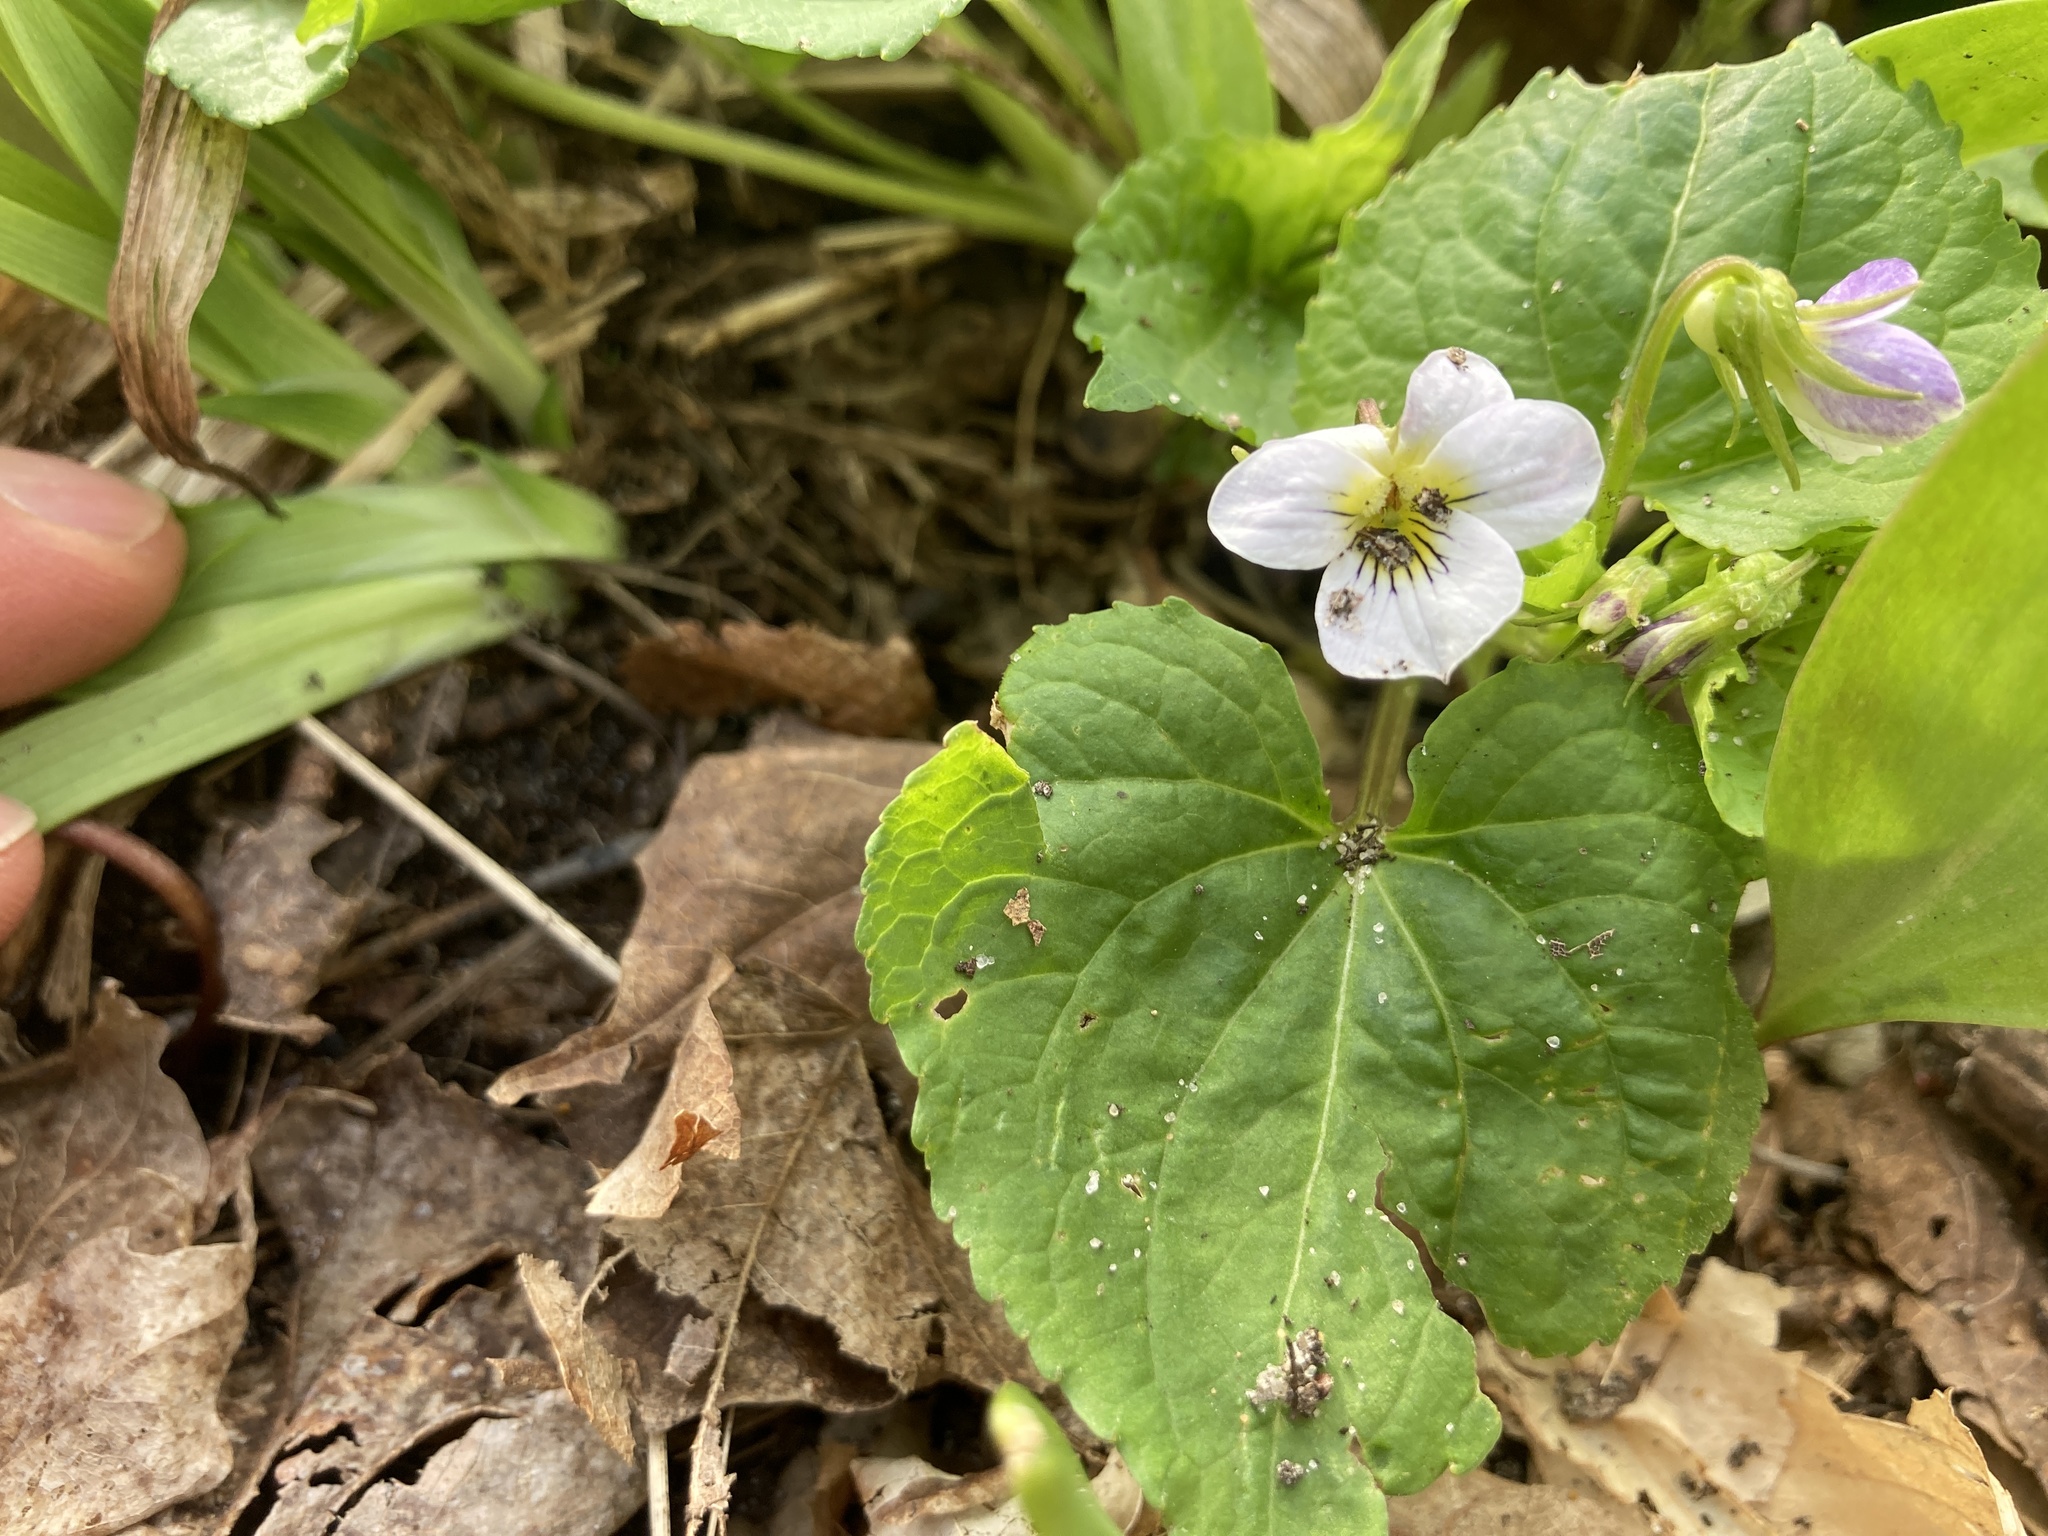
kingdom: Plantae
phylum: Tracheophyta
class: Magnoliopsida
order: Malpighiales
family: Violaceae
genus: Viola
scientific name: Viola canadensis
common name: Canada violet
